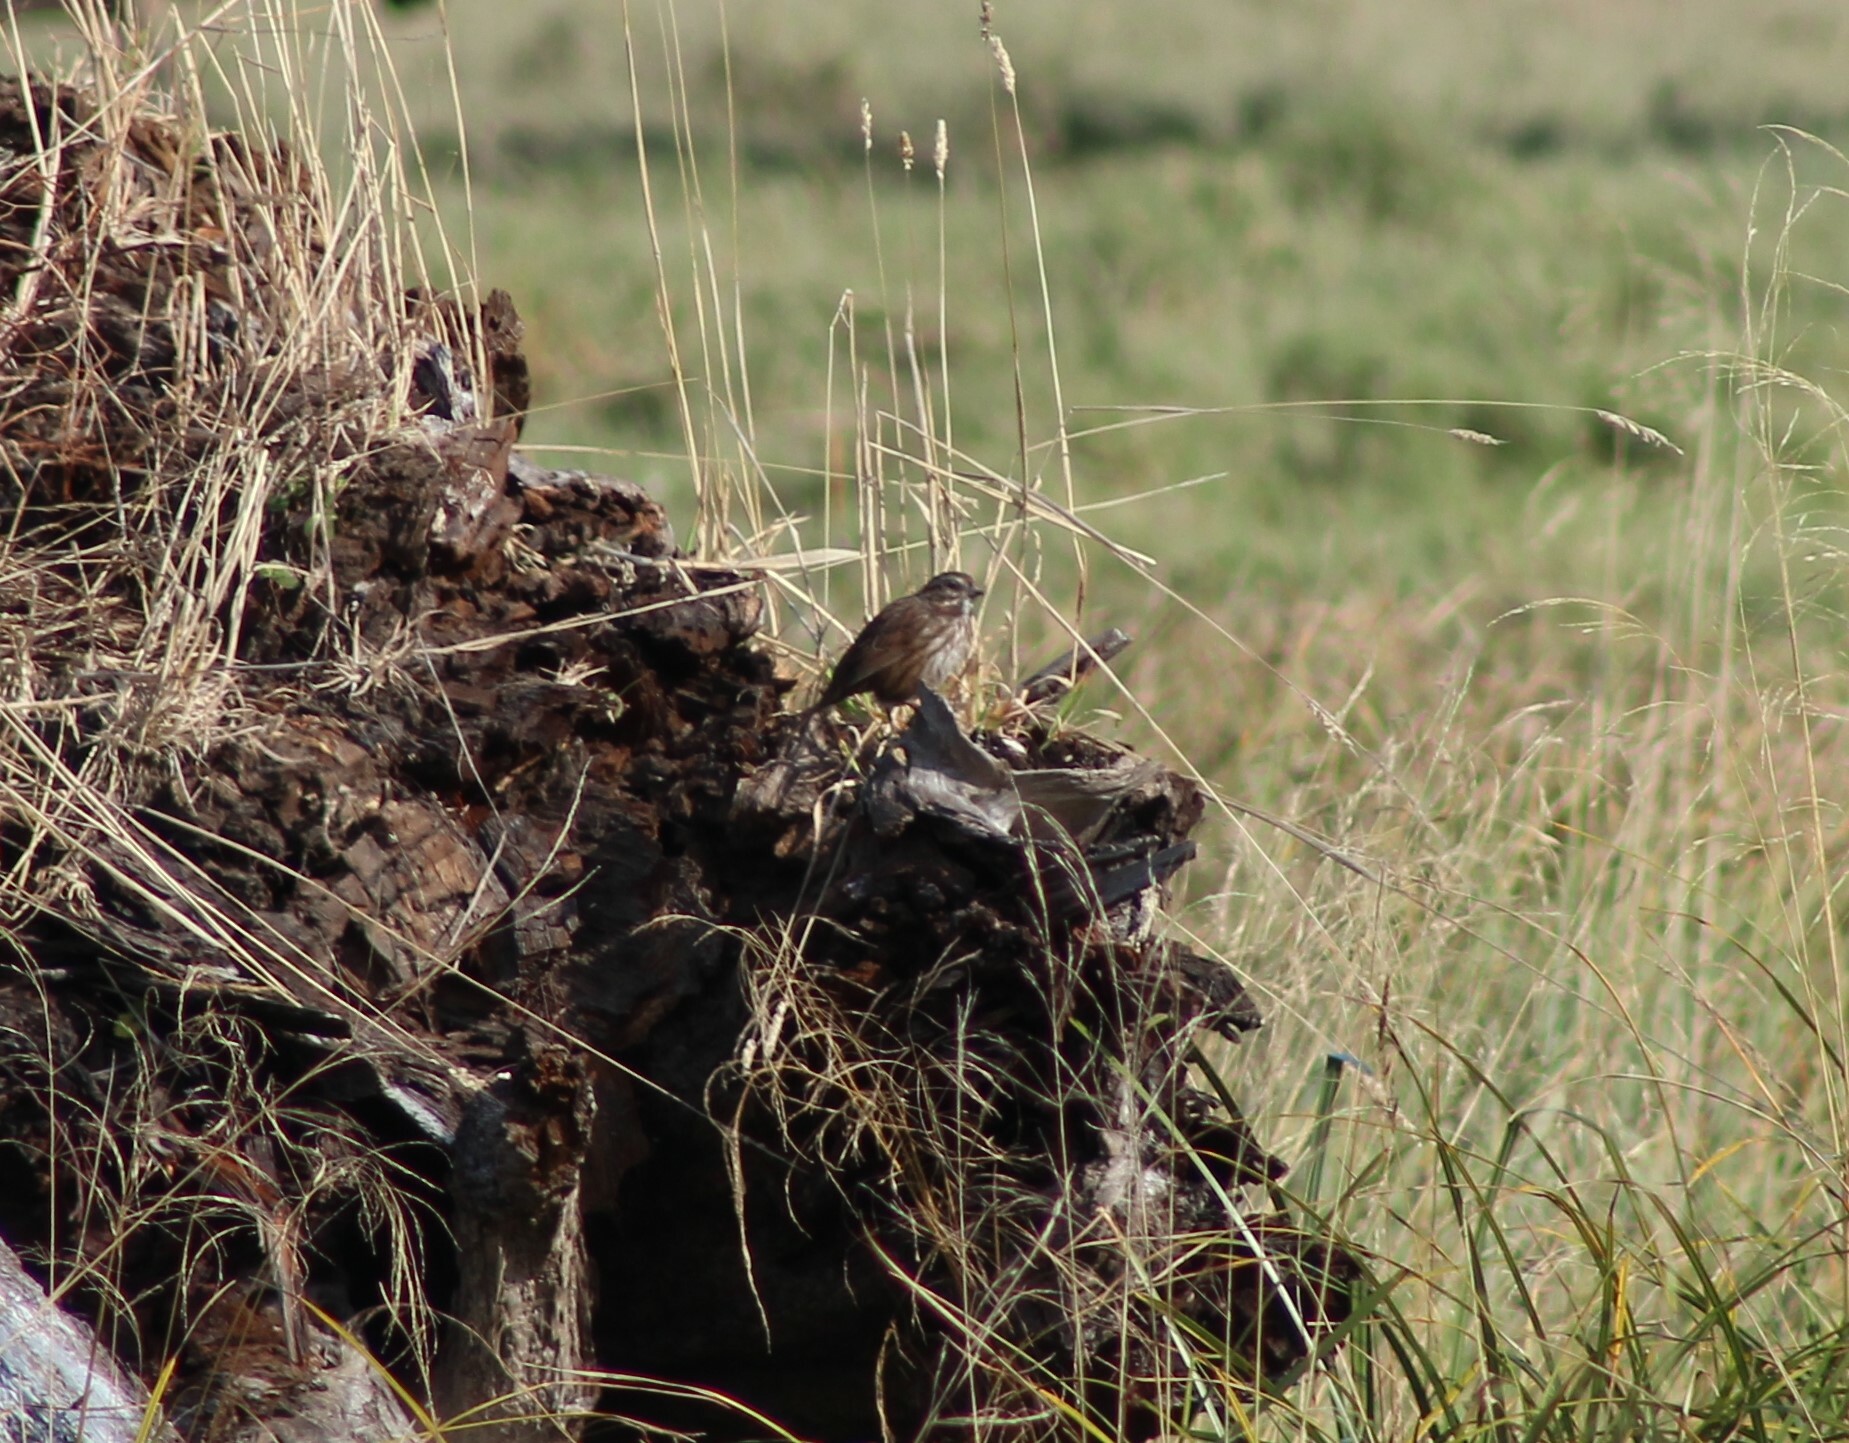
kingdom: Animalia
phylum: Chordata
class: Aves
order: Passeriformes
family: Passerellidae
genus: Melospiza
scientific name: Melospiza melodia
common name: Song sparrow
